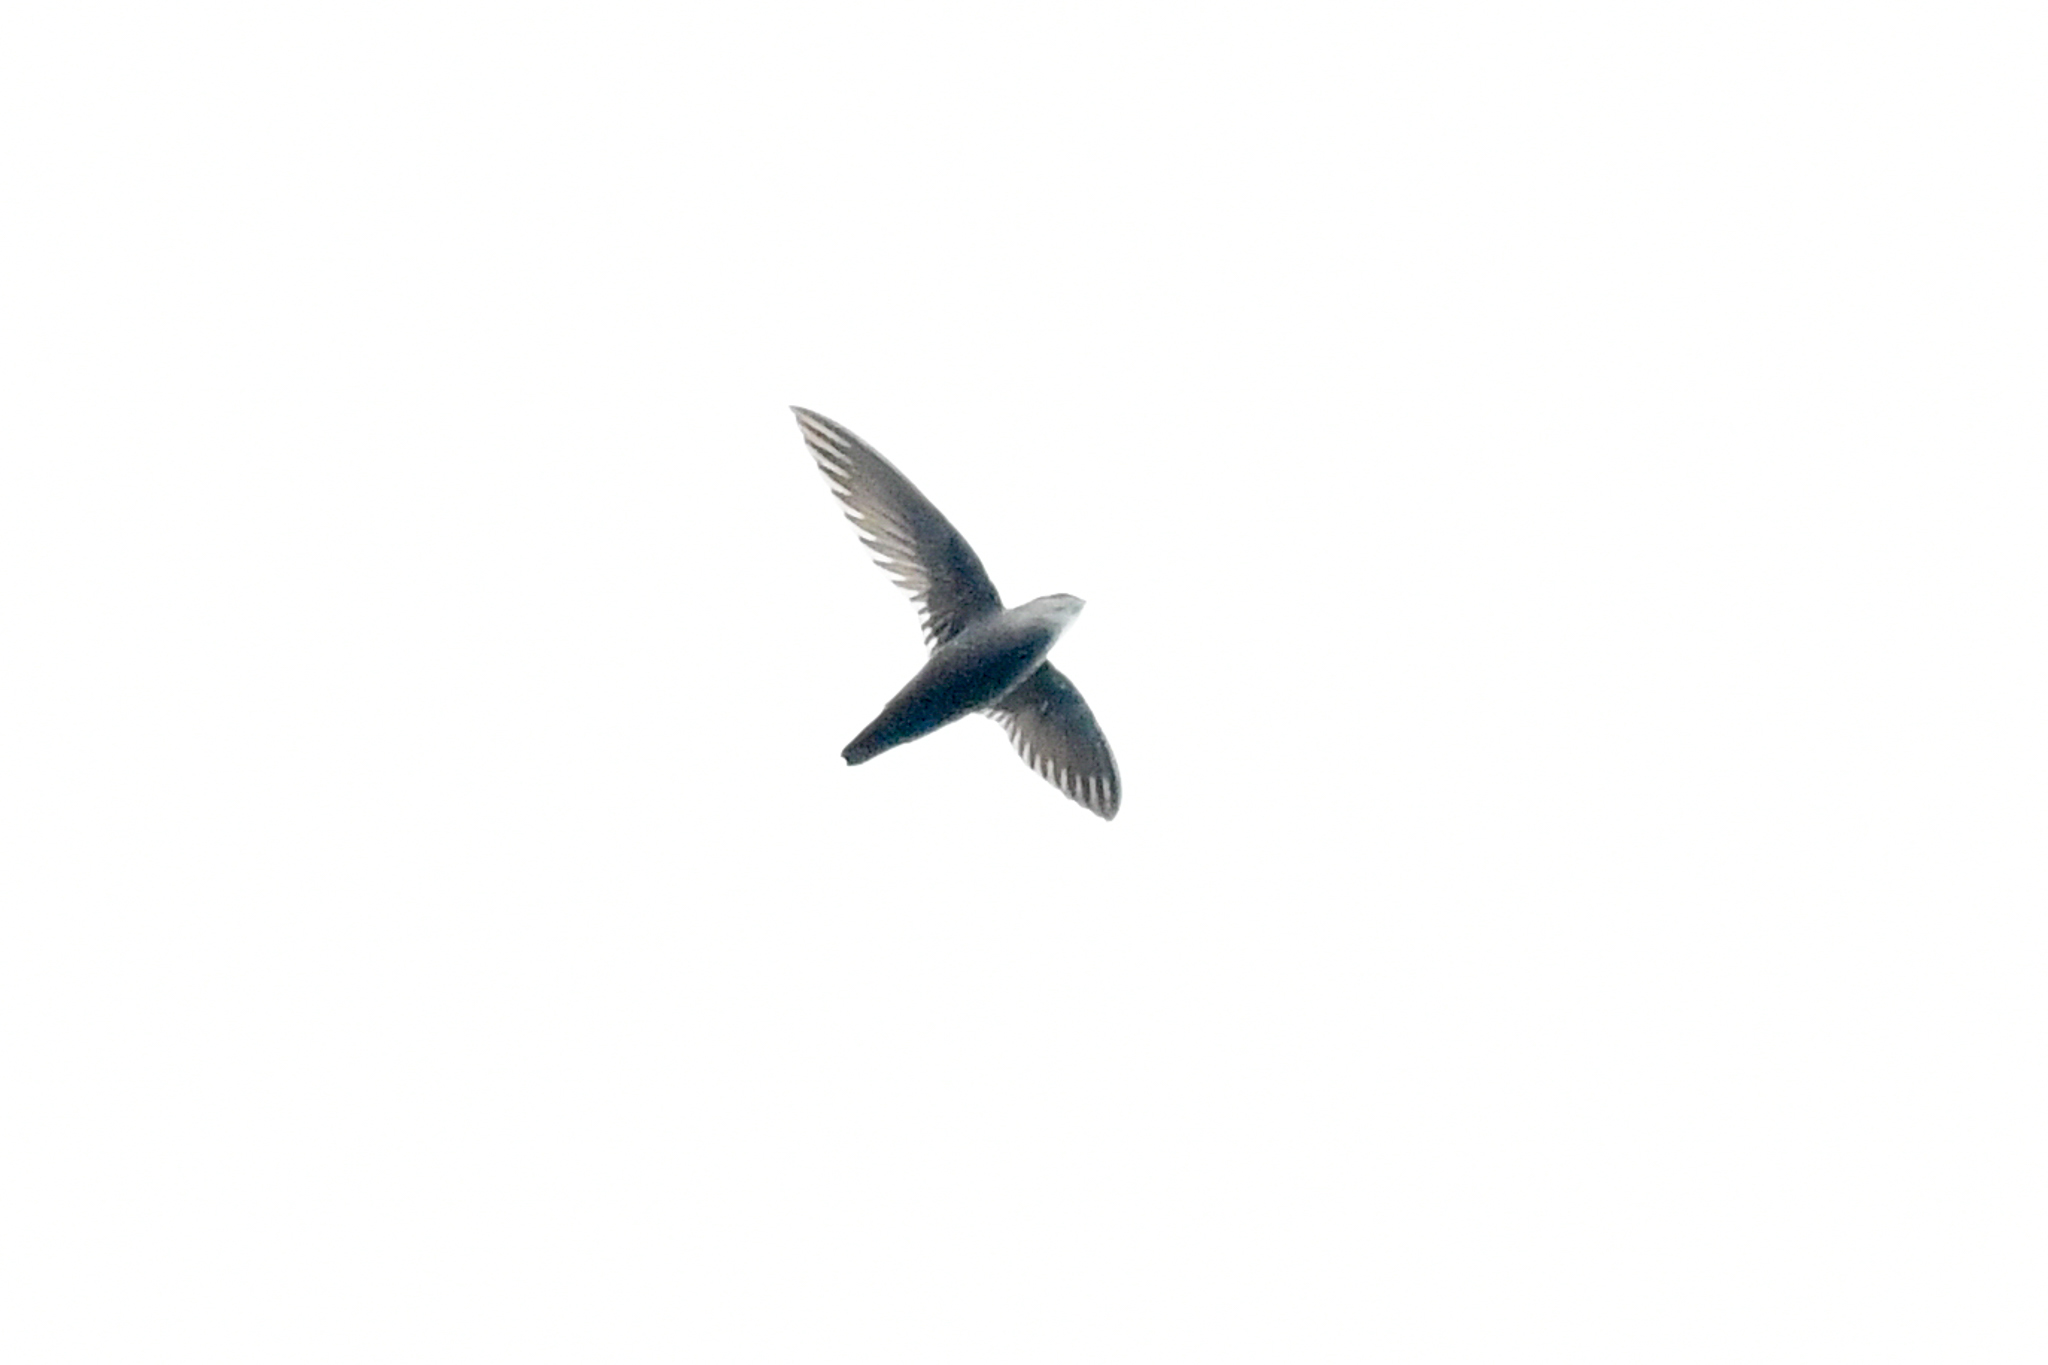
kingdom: Animalia
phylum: Chordata
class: Aves
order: Apodiformes
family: Apodidae
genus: Chaetura
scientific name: Chaetura cinereiventris
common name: Gray-rumped swift
